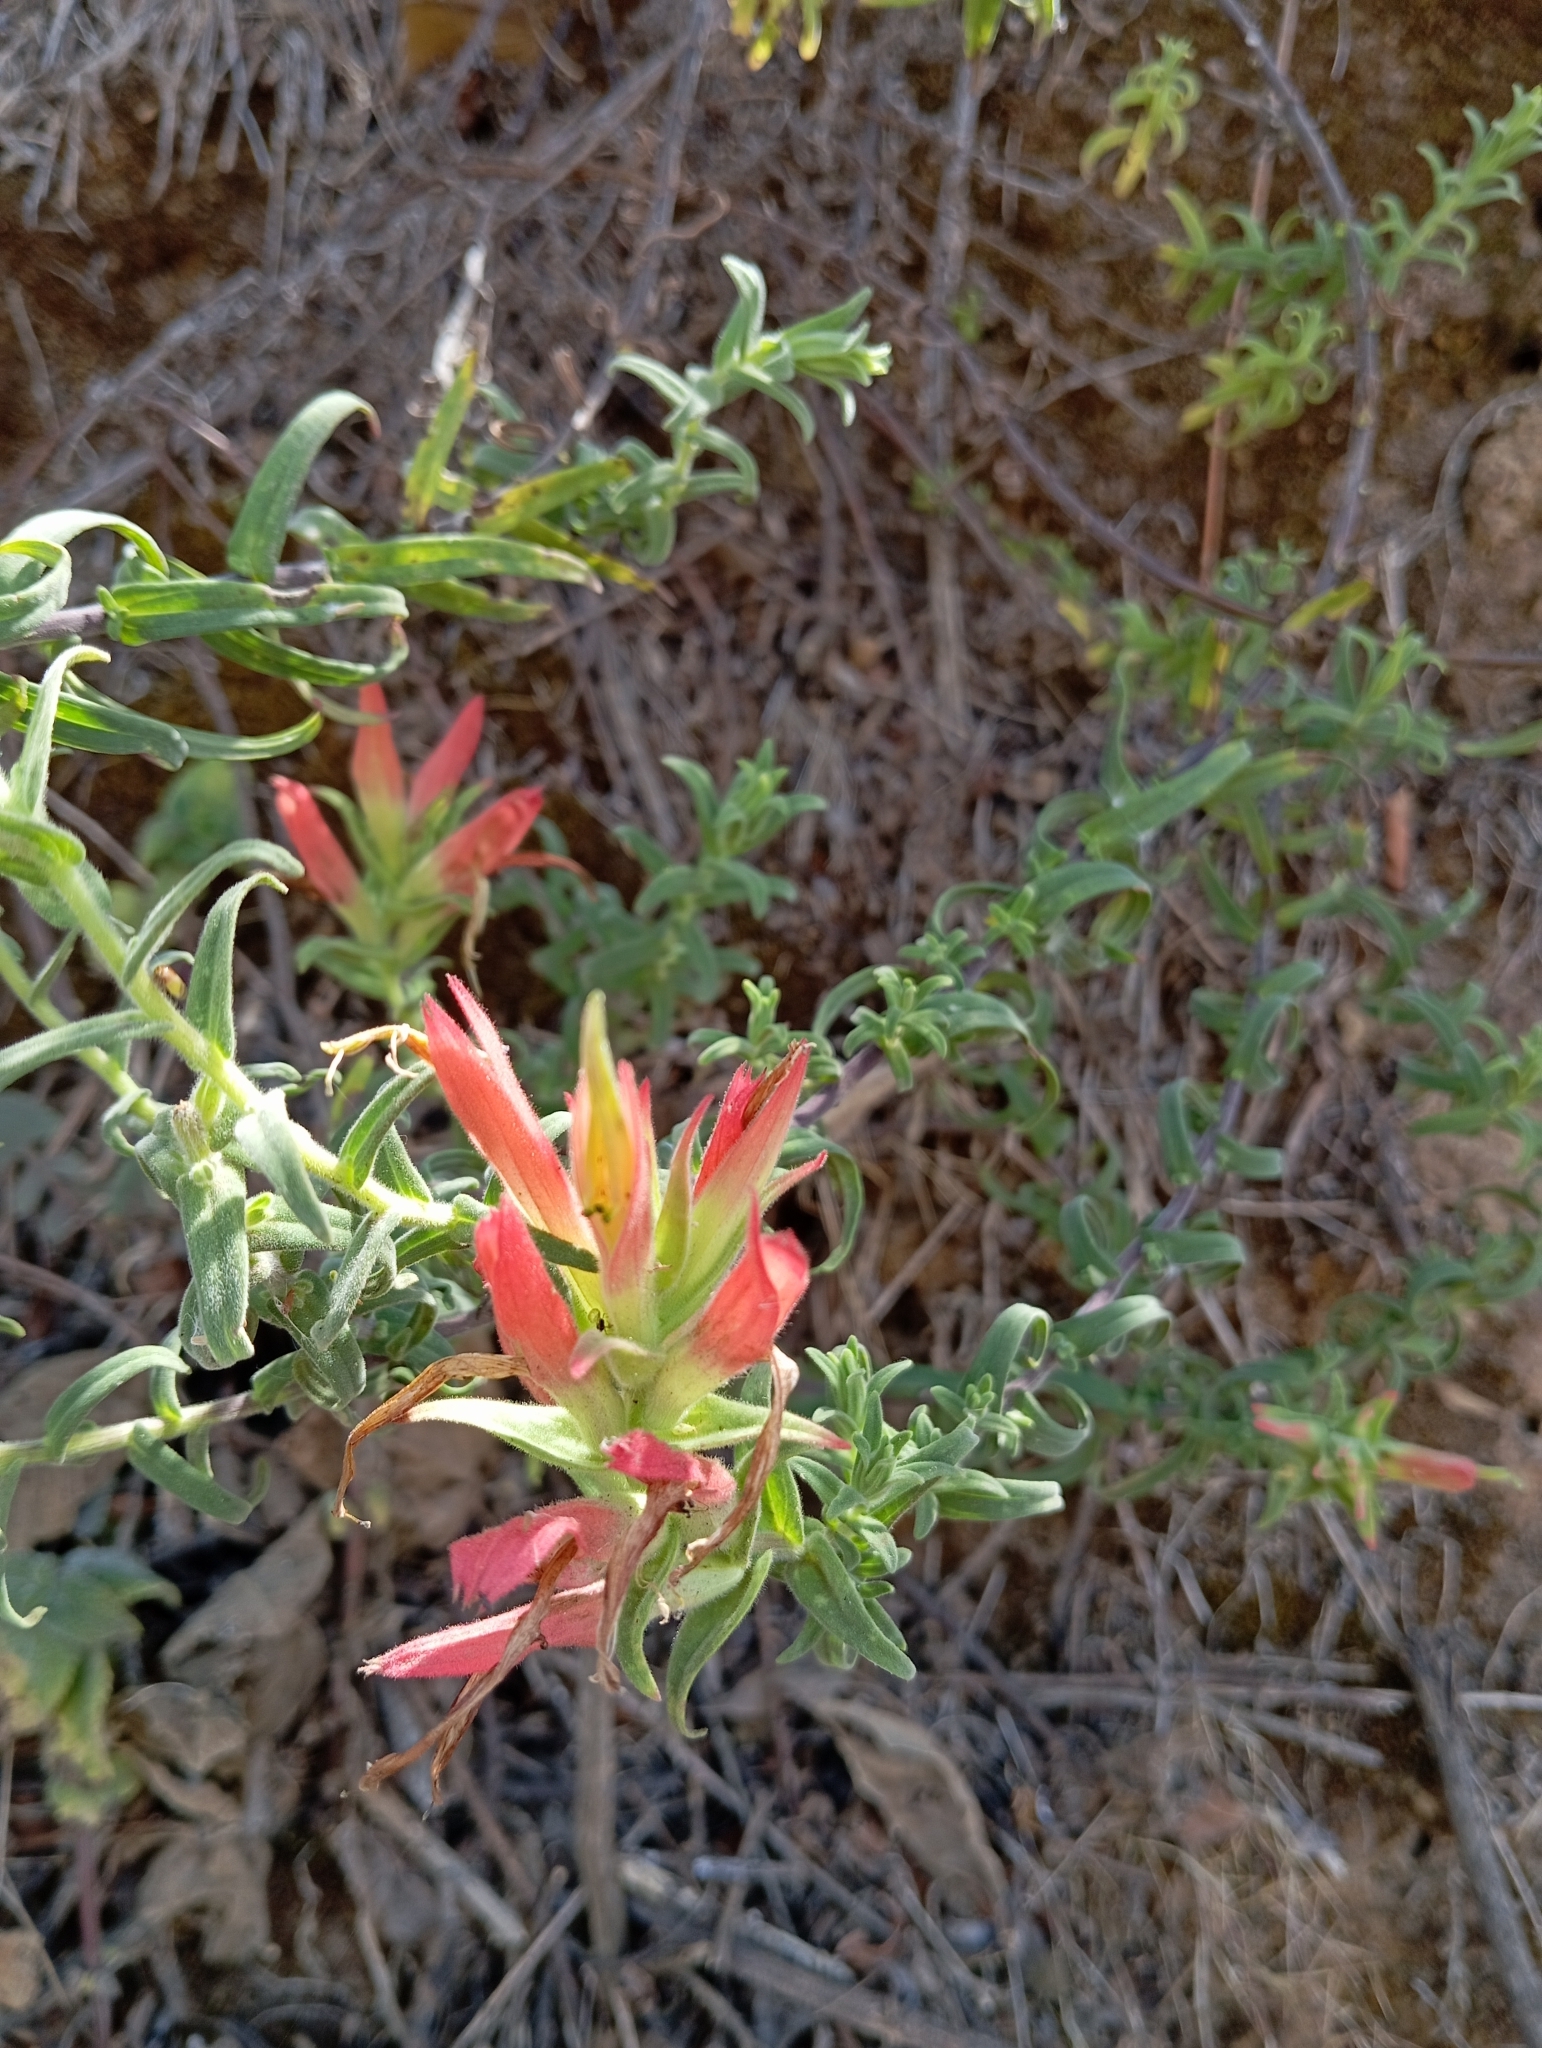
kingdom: Plantae
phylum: Tracheophyta
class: Magnoliopsida
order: Lamiales
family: Orobanchaceae
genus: Castilleja
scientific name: Castilleja tenuiflora
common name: Santa catalina indian paintbrush
